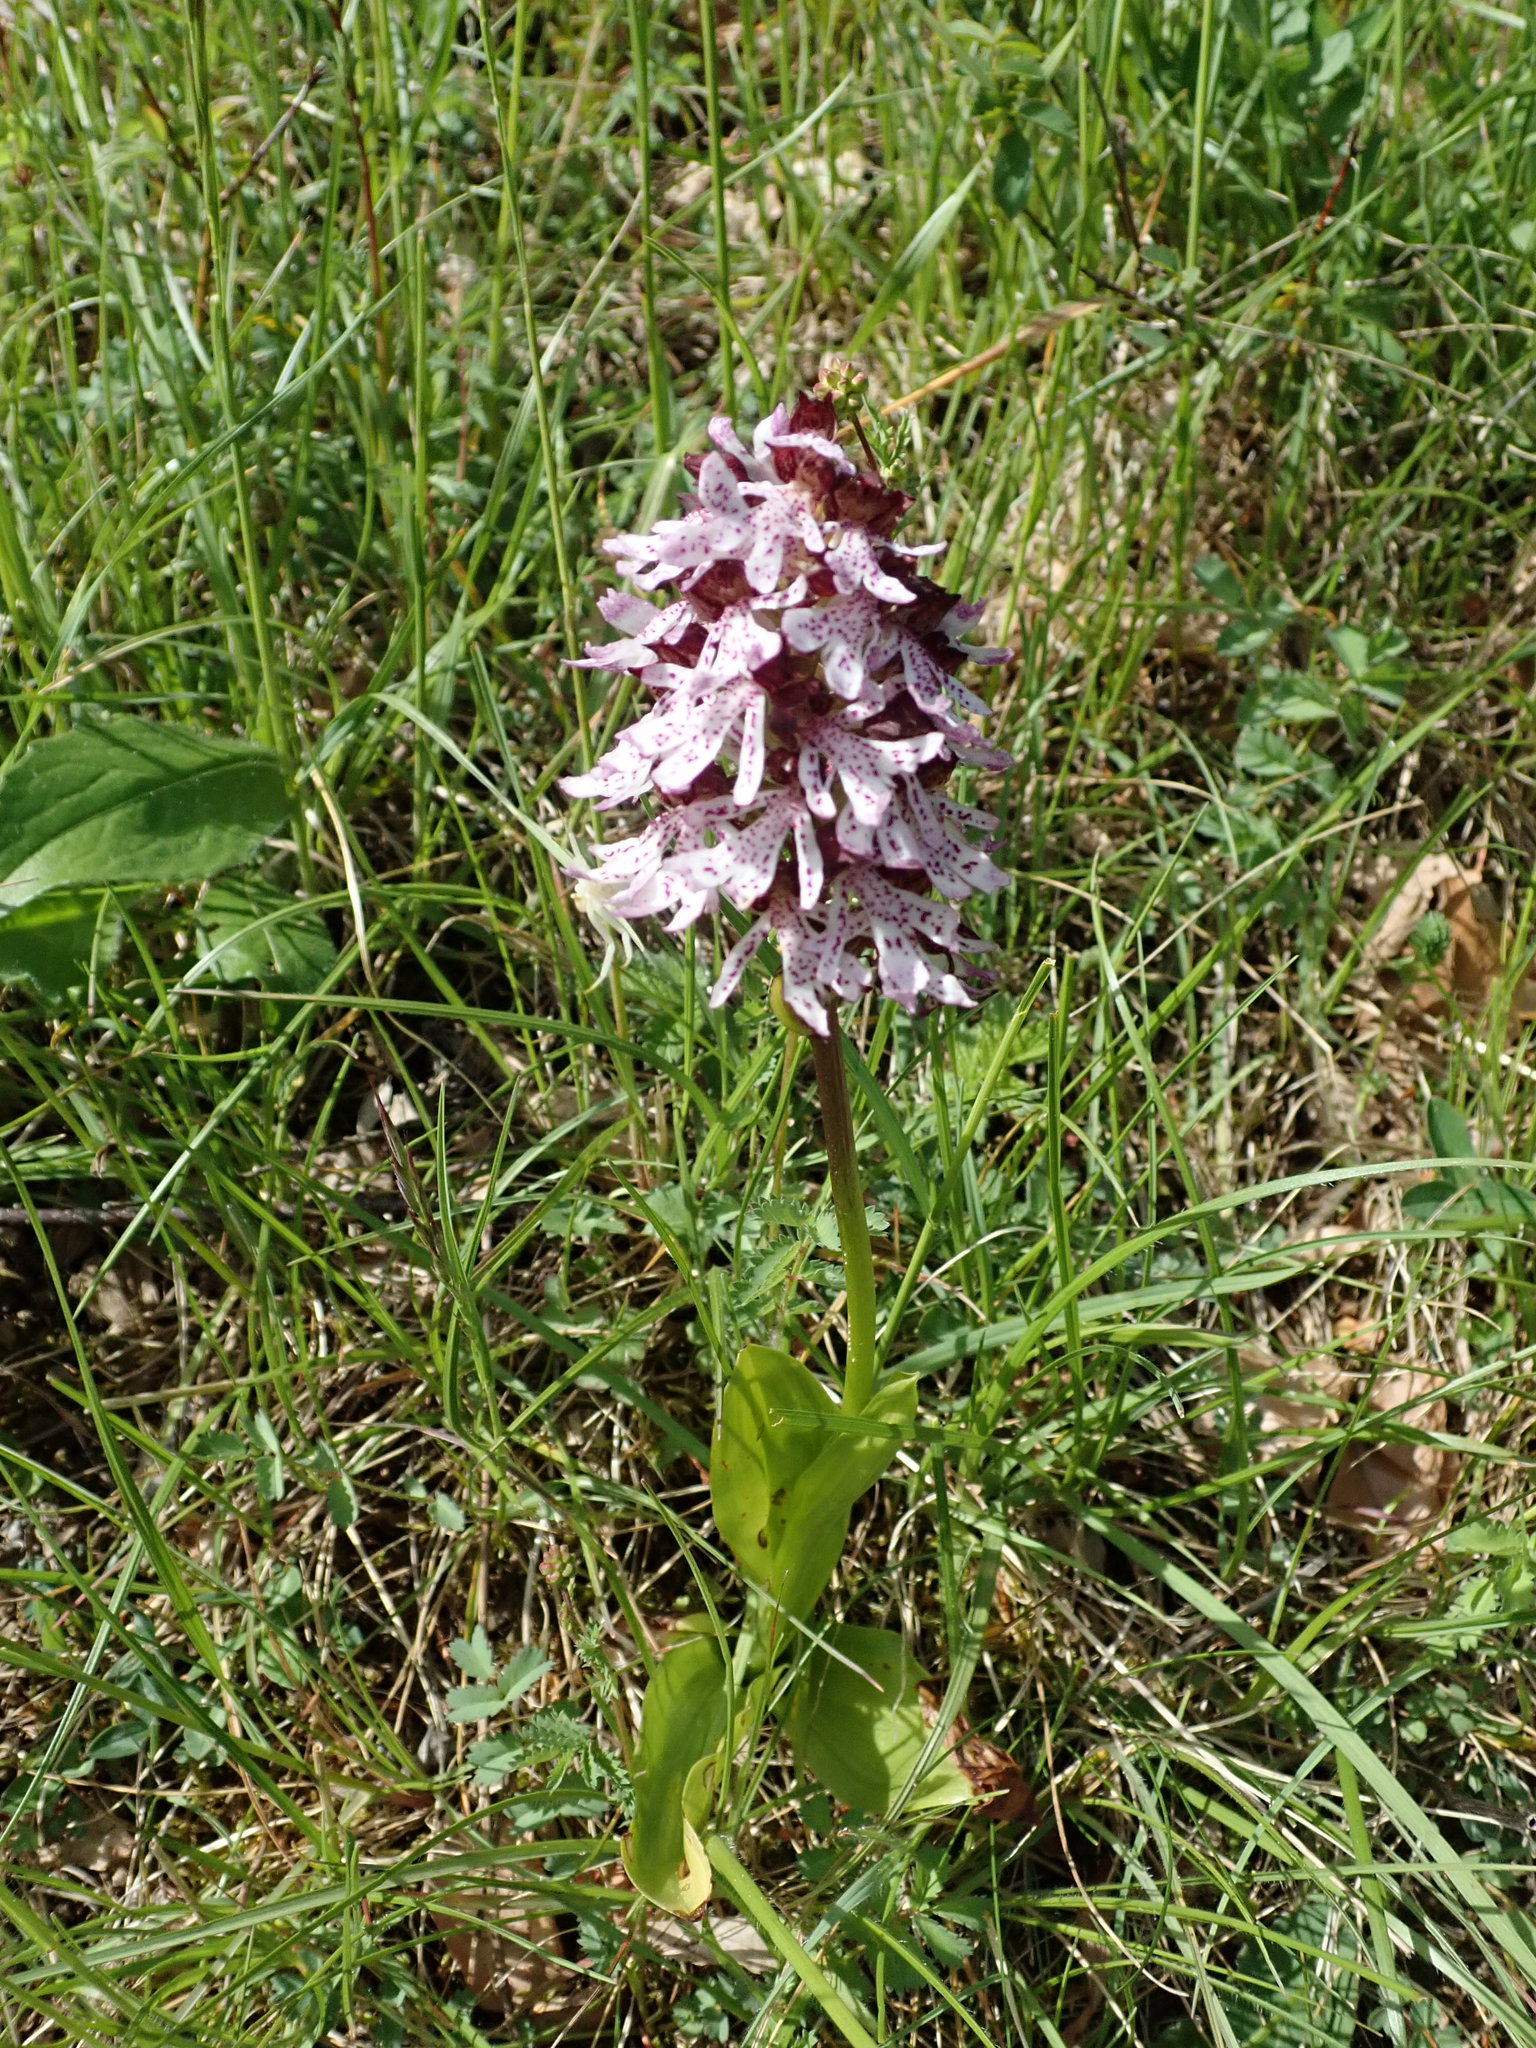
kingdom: Plantae
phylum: Tracheophyta
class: Liliopsida
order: Asparagales
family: Orchidaceae
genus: Orchis
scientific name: Orchis purpurea
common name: Lady orchid
